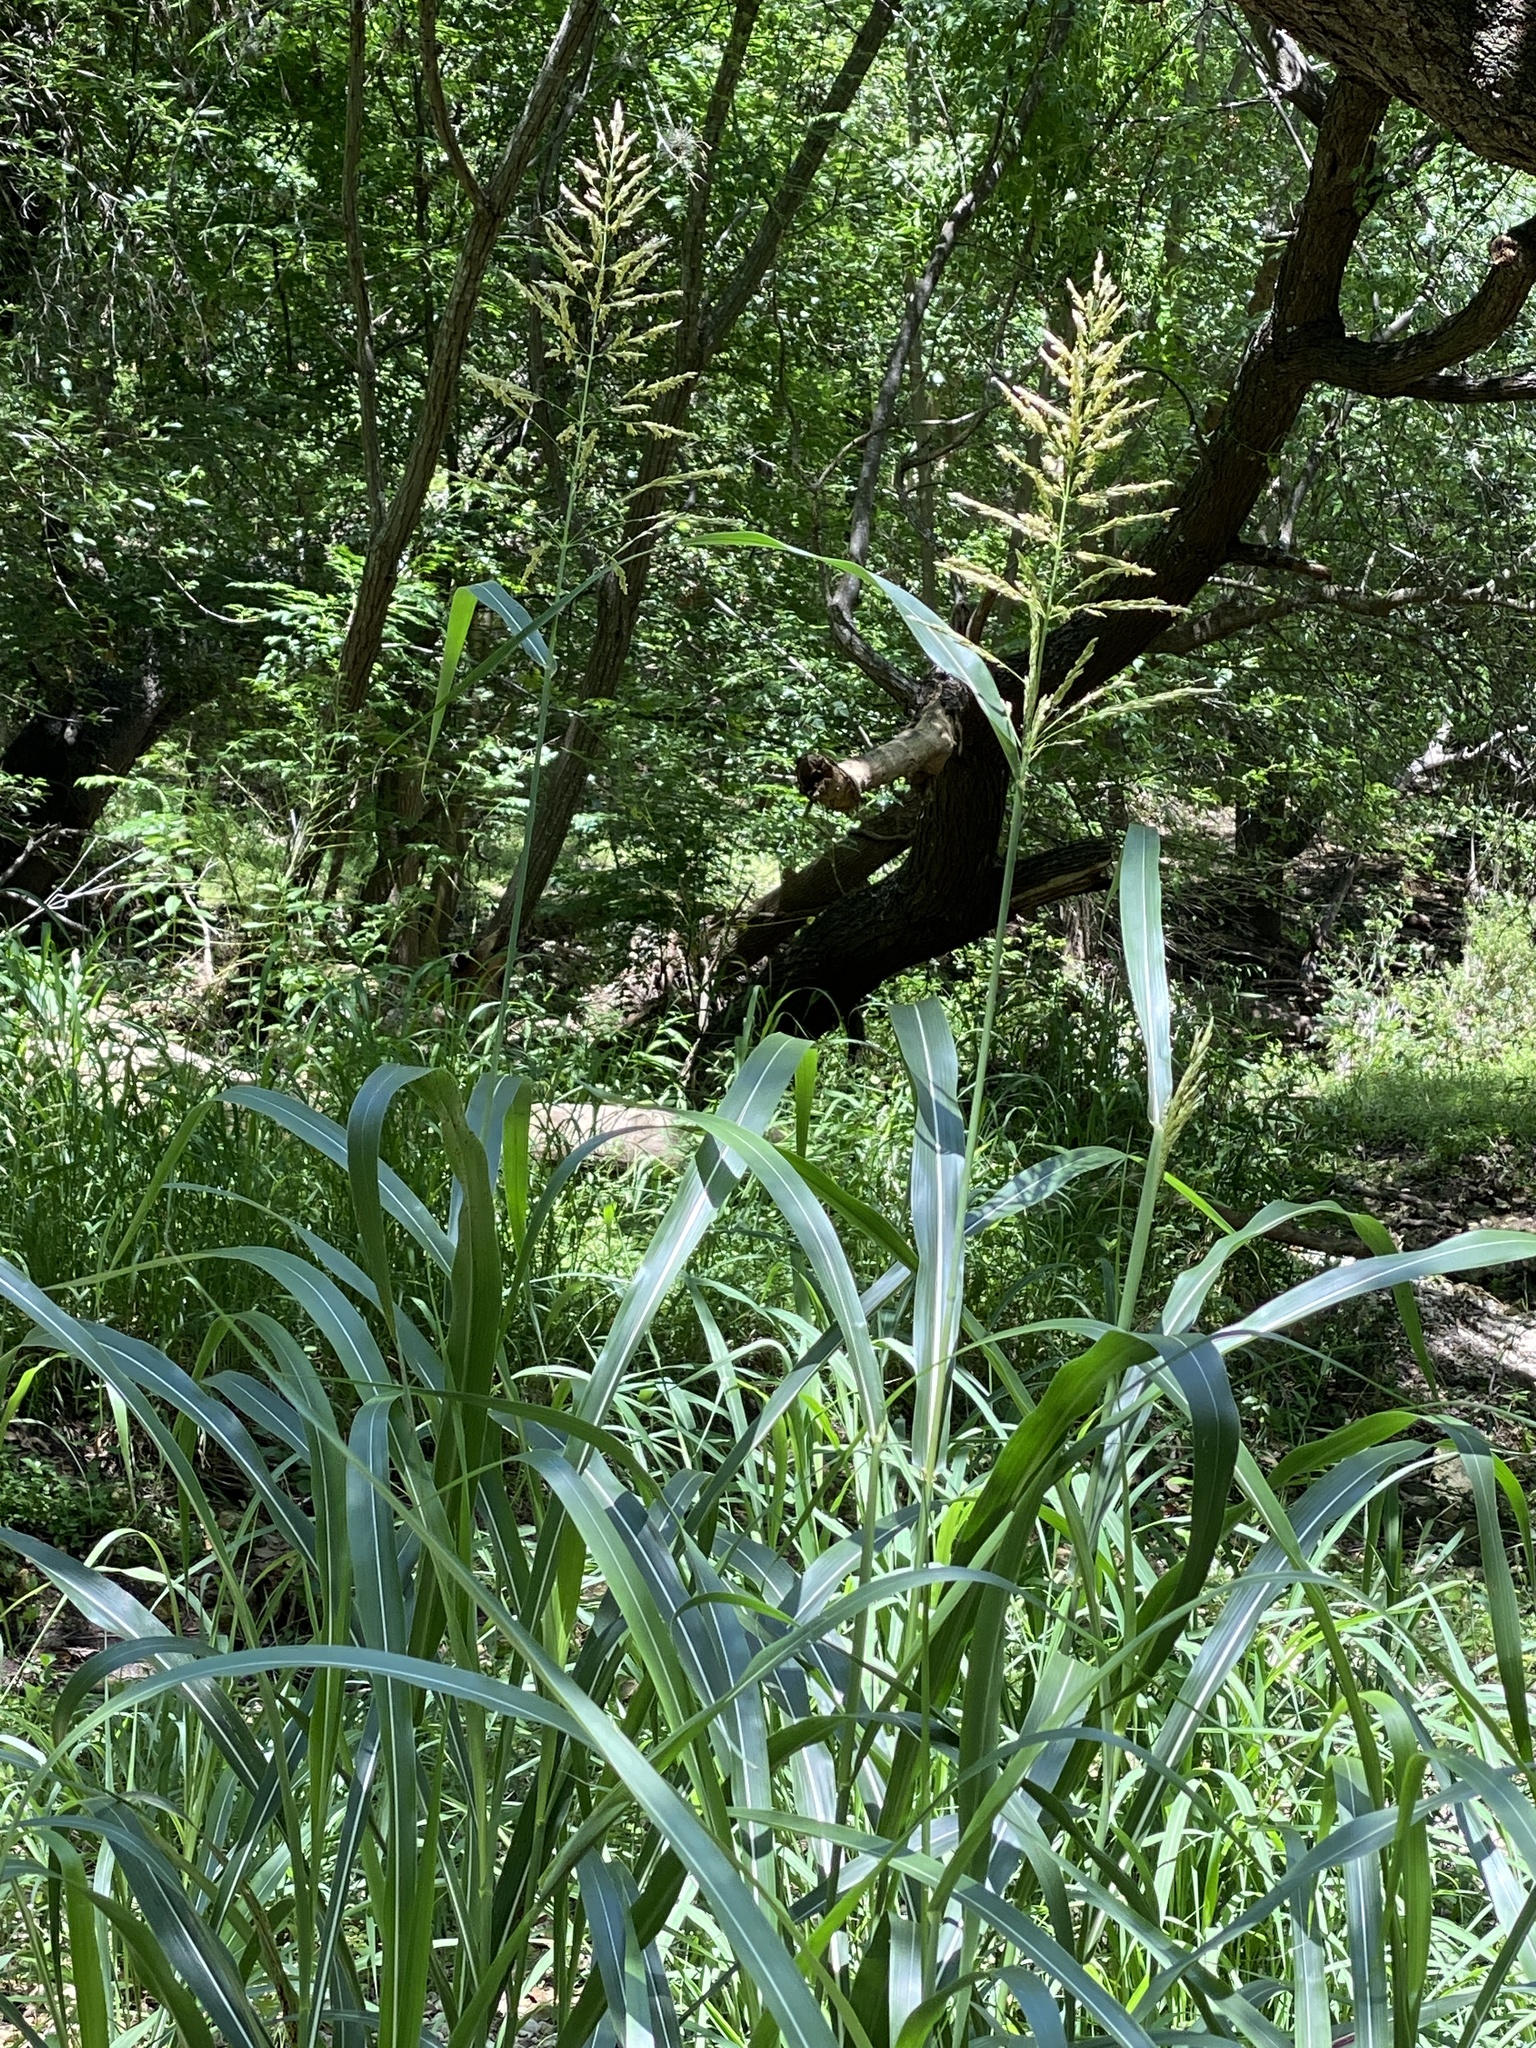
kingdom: Plantae
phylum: Tracheophyta
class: Liliopsida
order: Poales
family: Poaceae
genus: Sorghum
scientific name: Sorghum halepense
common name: Johnson-grass
